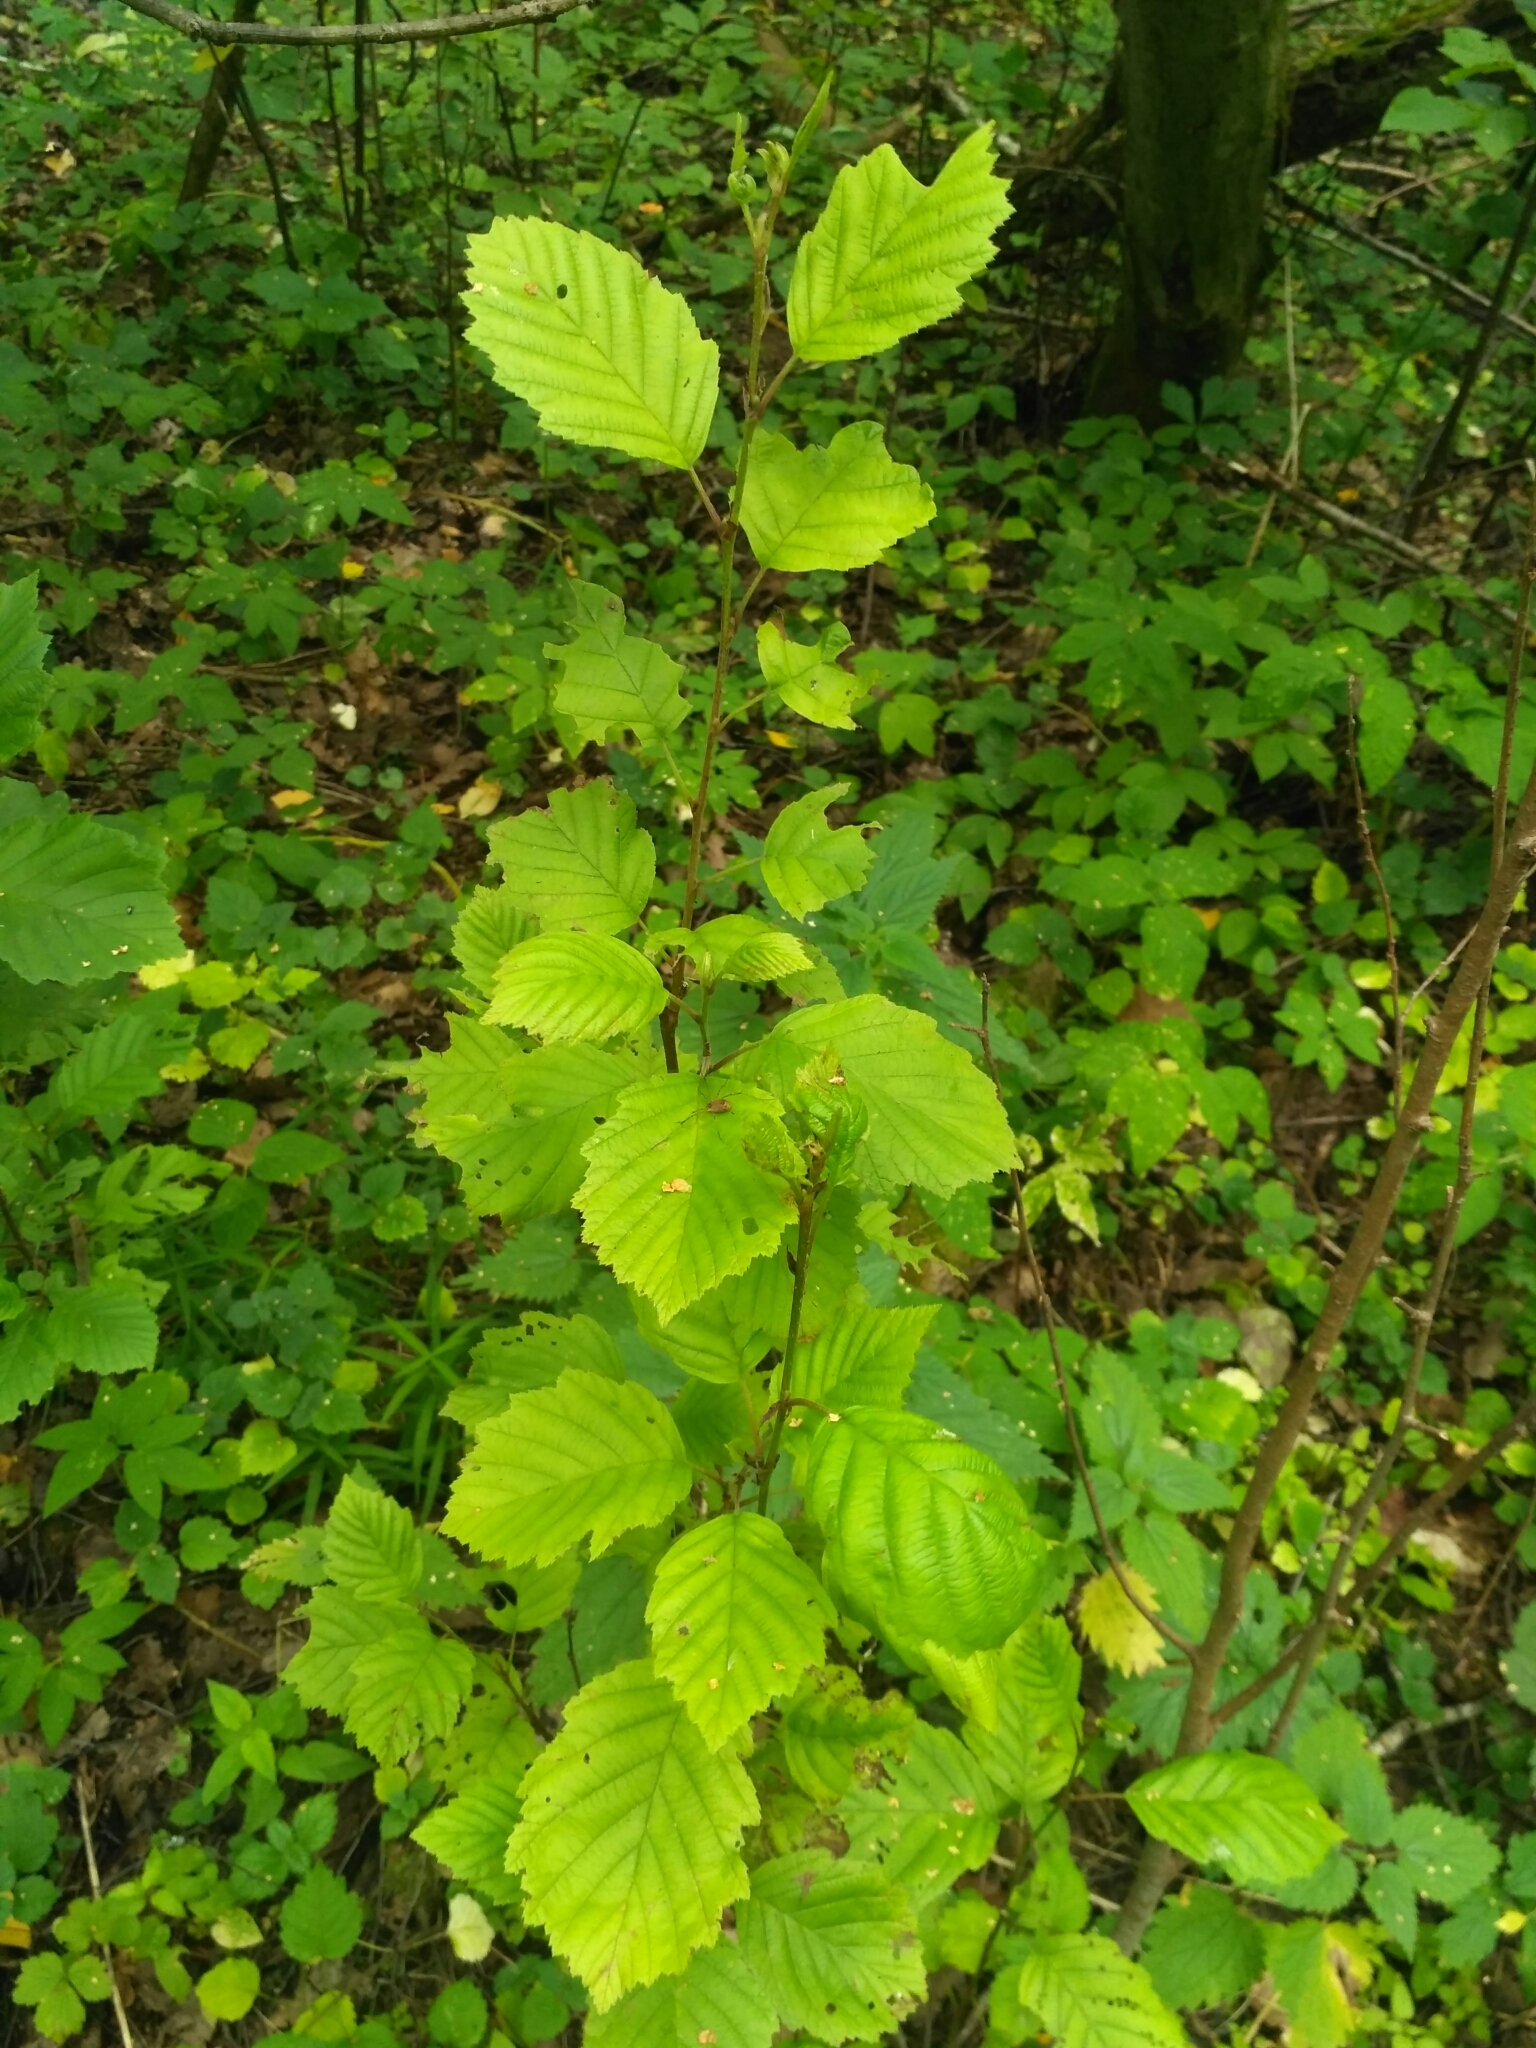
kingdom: Plantae
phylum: Tracheophyta
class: Magnoliopsida
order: Fagales
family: Betulaceae
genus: Alnus
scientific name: Alnus incana
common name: Grey alder
